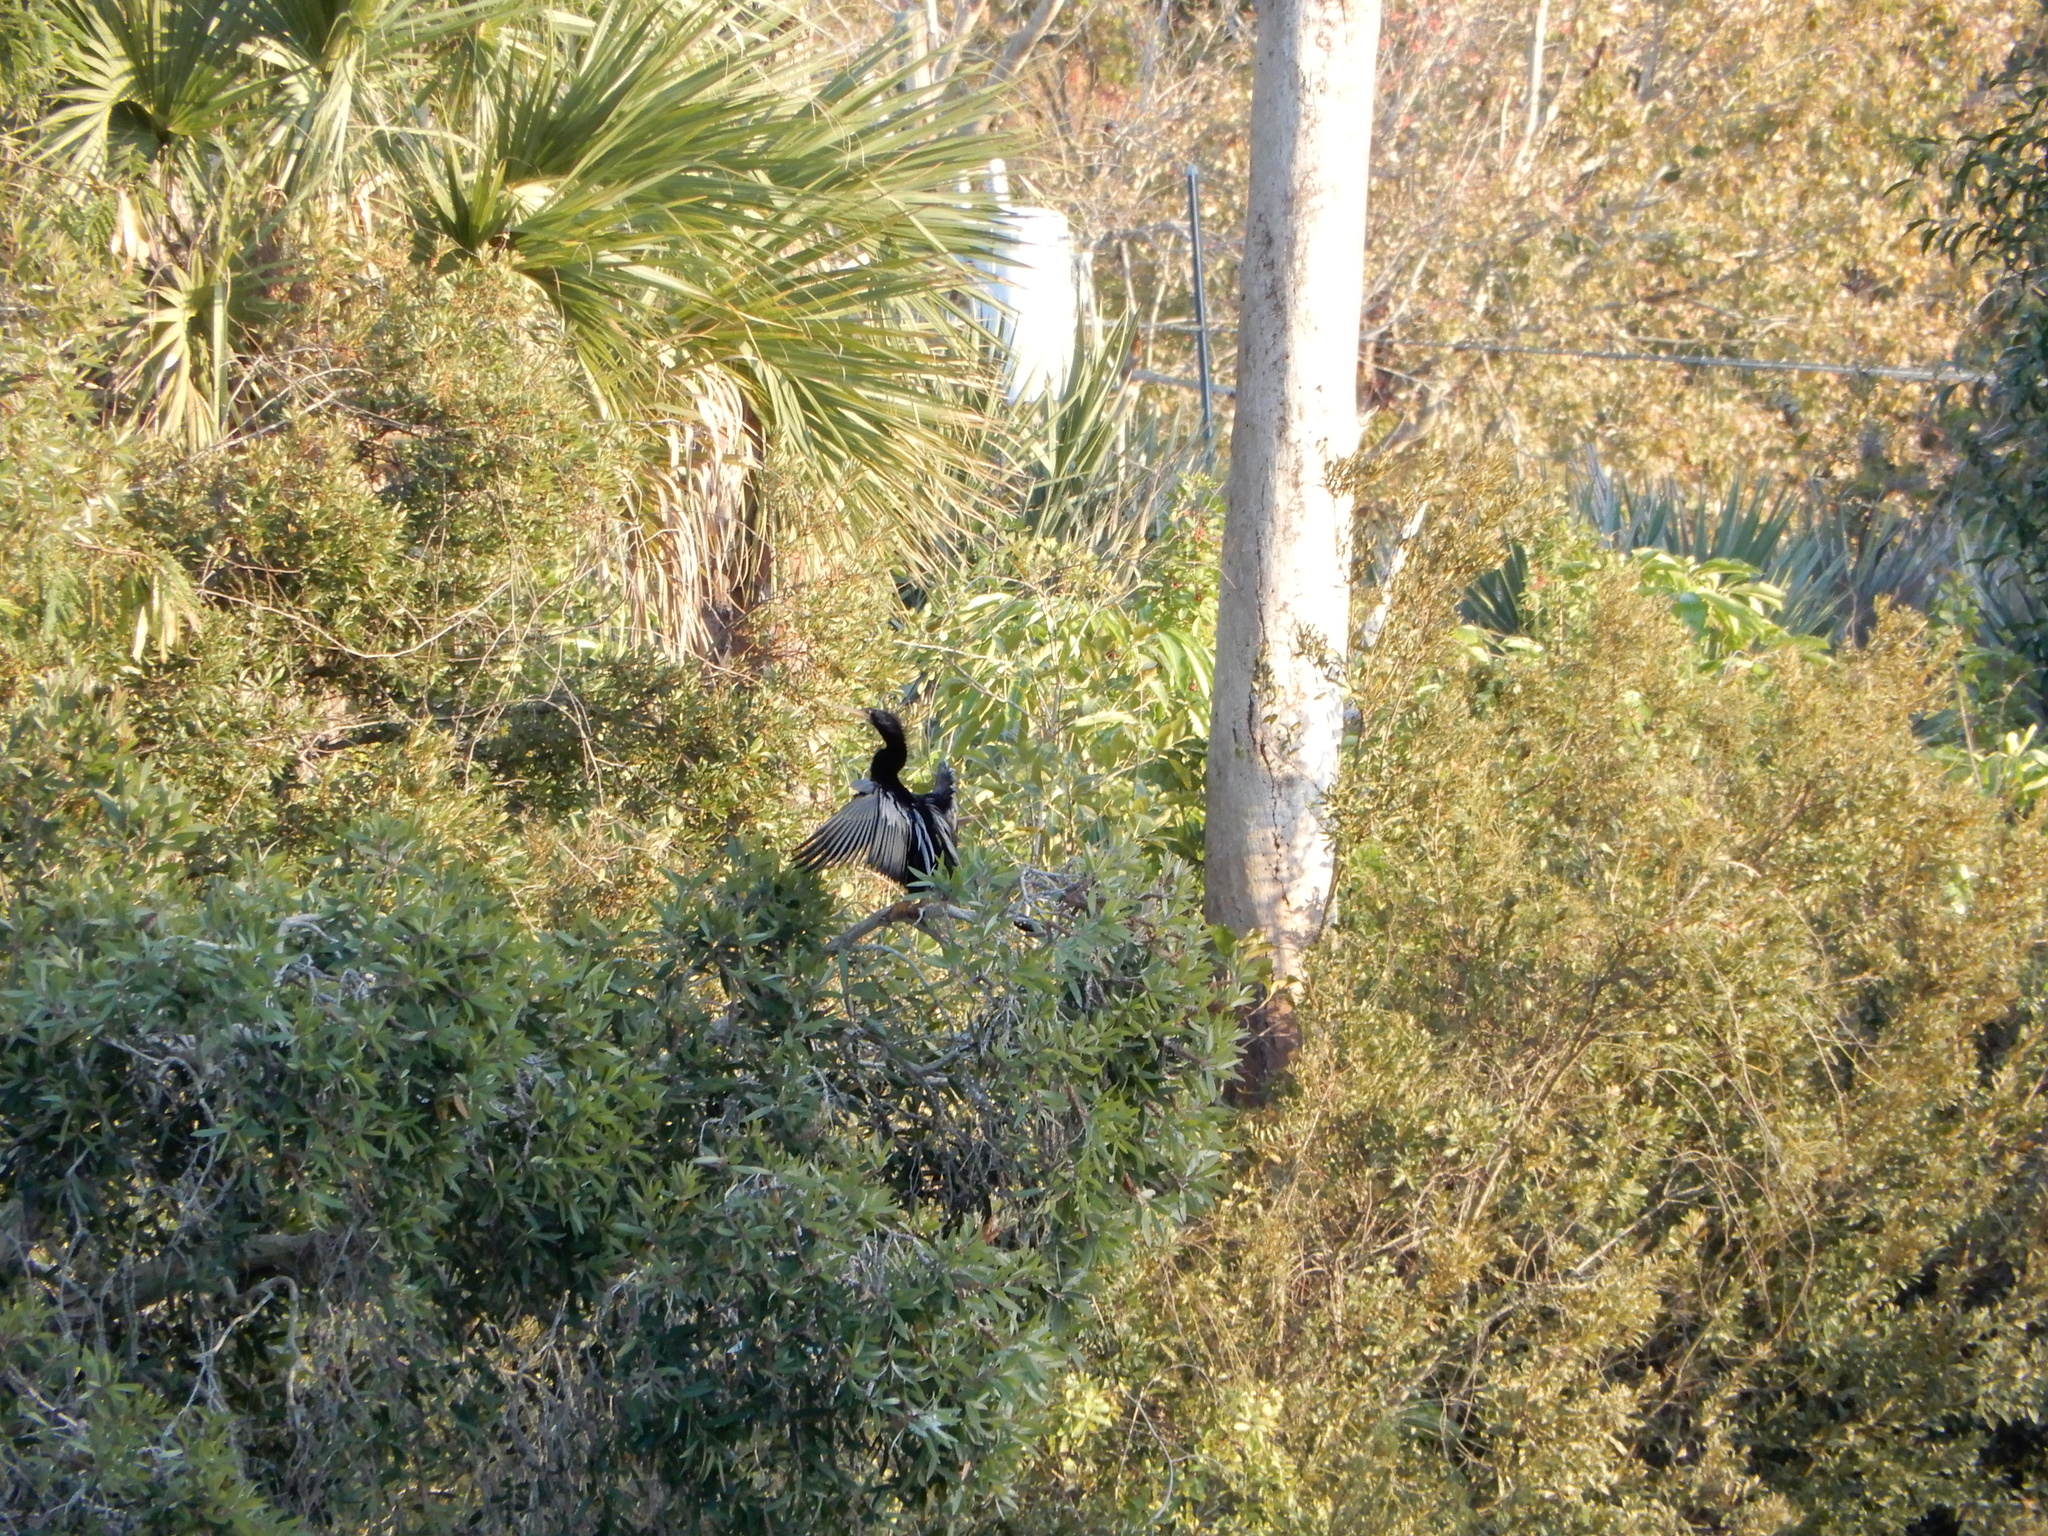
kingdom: Animalia
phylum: Chordata
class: Aves
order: Suliformes
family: Anhingidae
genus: Anhinga
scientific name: Anhinga anhinga
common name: Anhinga
